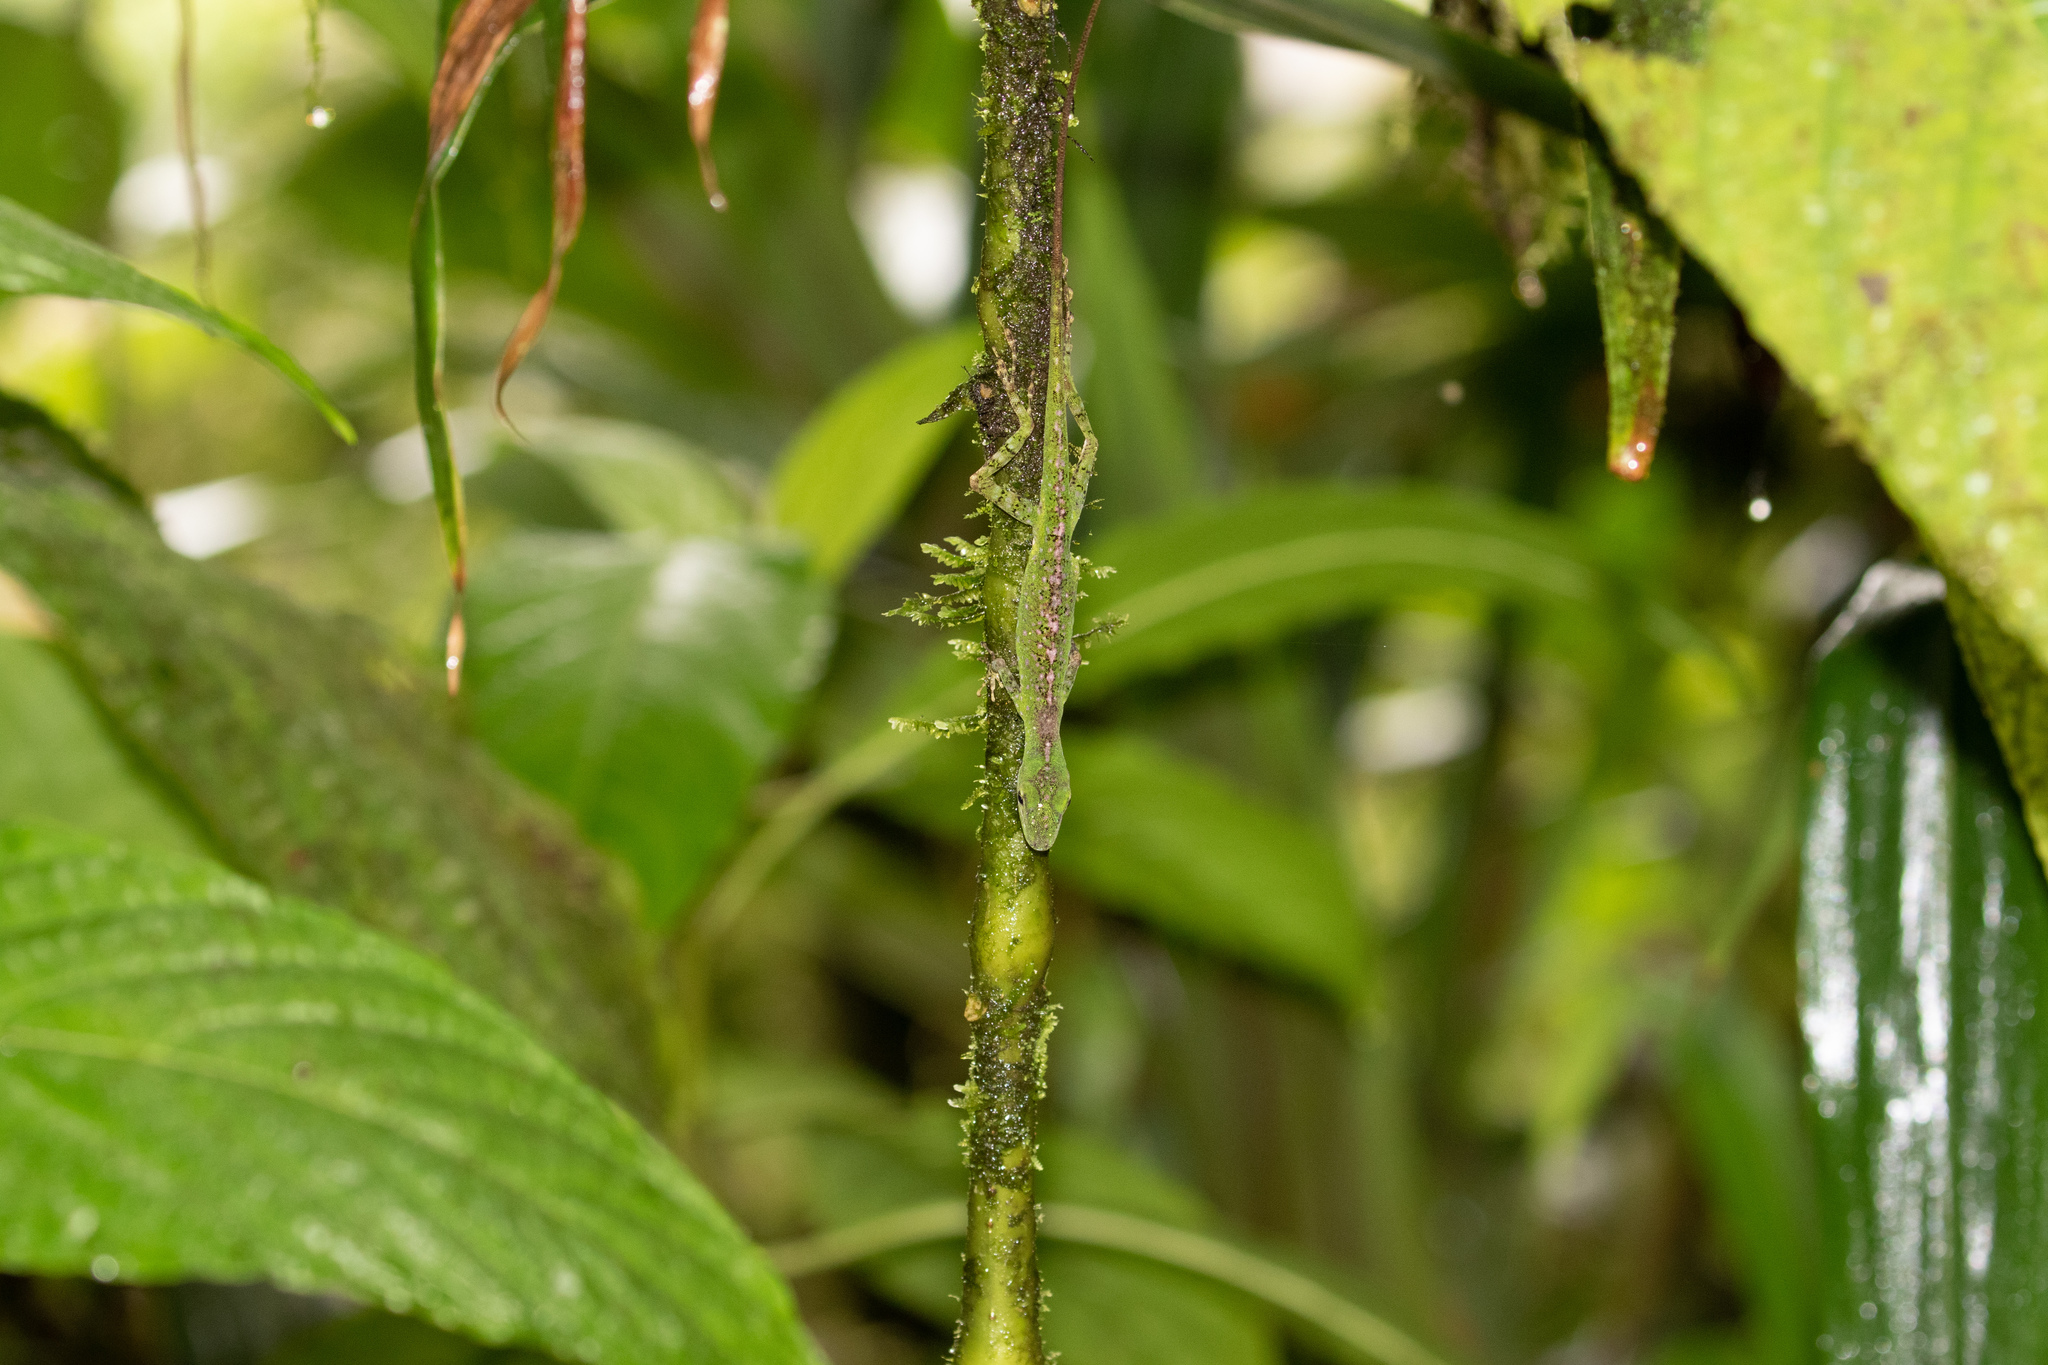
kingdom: Animalia
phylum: Chordata
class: Squamata
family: Dactyloidae
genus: Anolis
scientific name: Anolis gemmosus
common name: O'shaughnessy's anole
